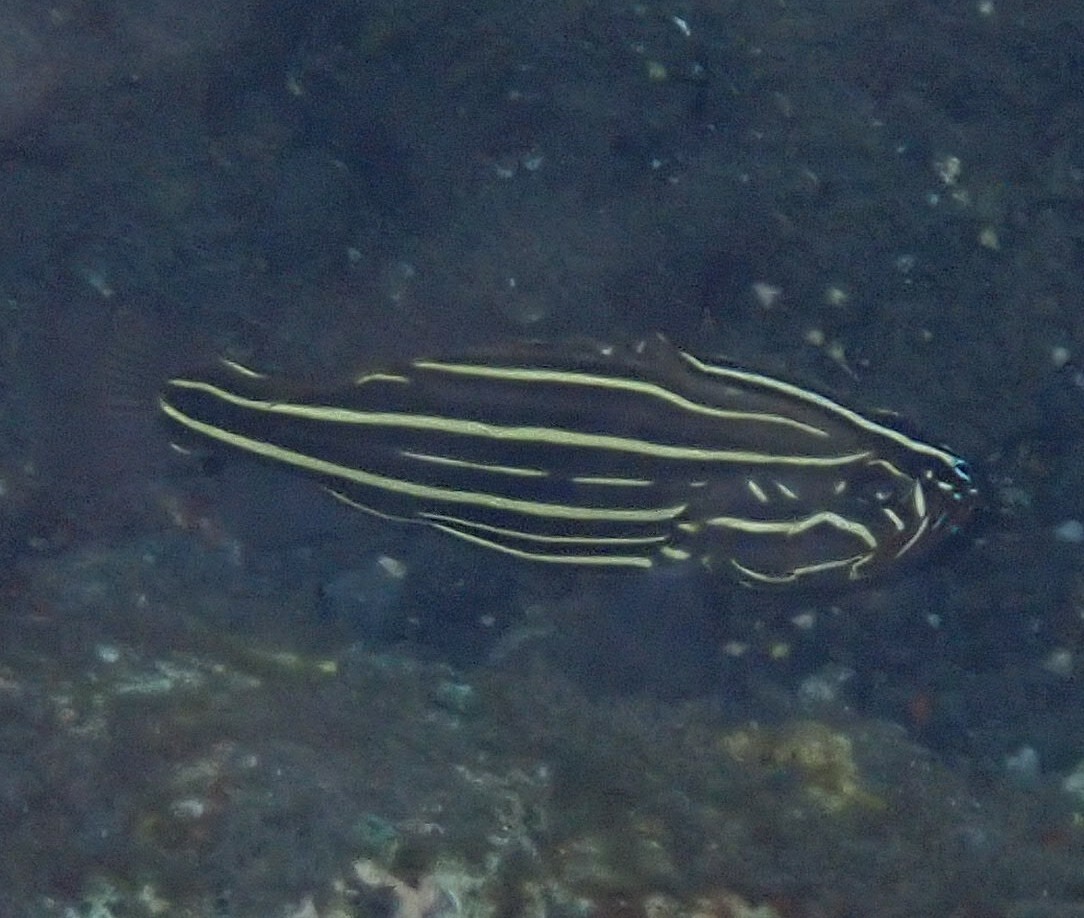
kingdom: Animalia
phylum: Chordata
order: Perciformes
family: Serranidae
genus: Grammistes
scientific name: Grammistes sexlineatus
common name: Sixline soapfish
